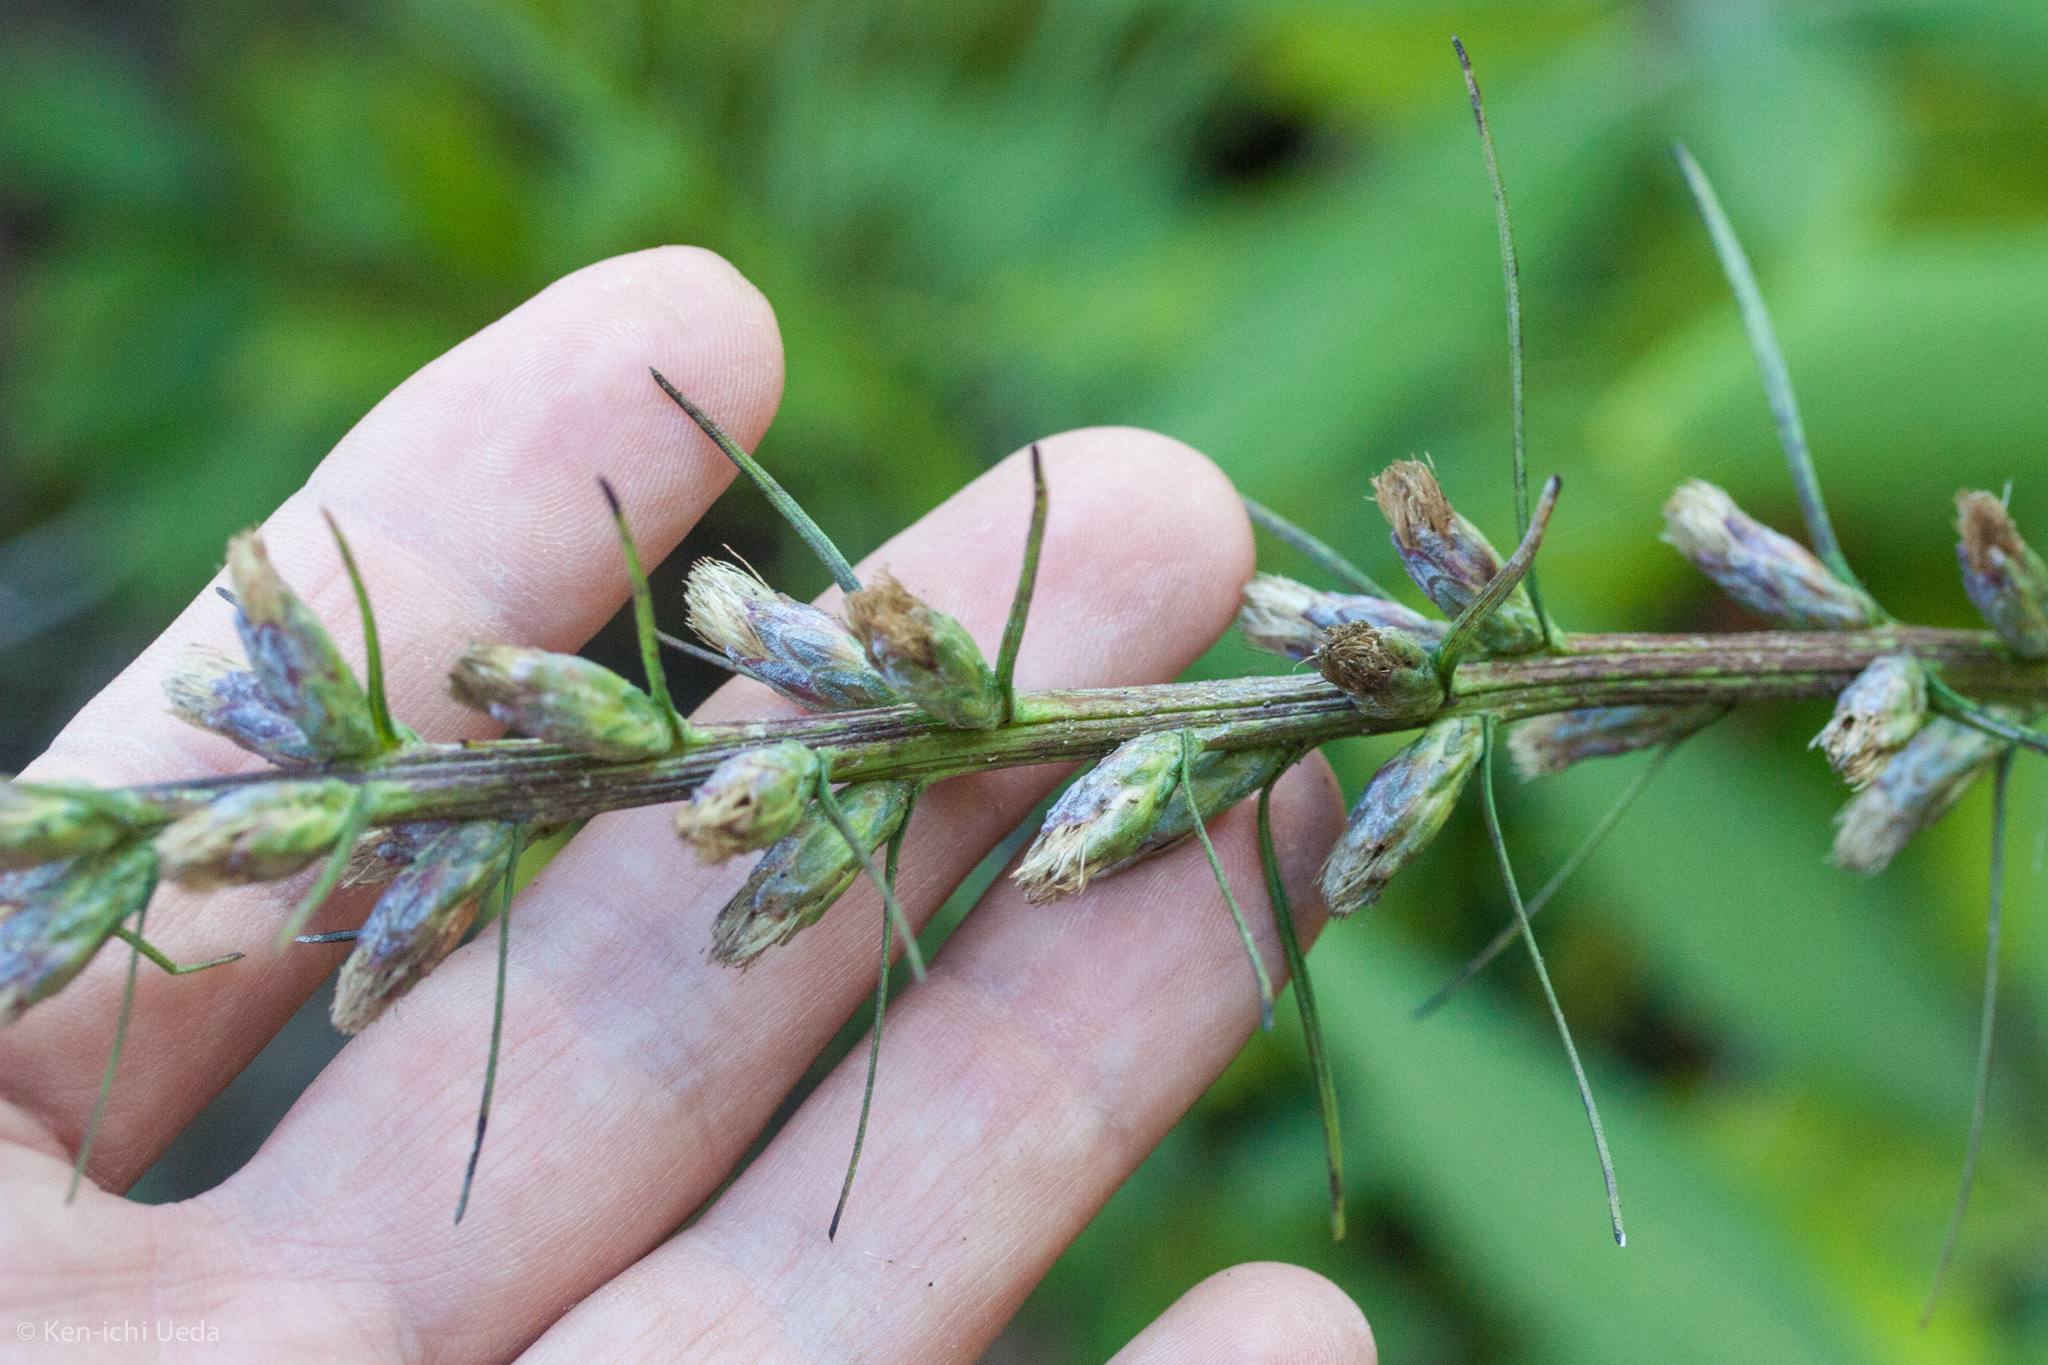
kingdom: Plantae
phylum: Tracheophyta
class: Magnoliopsida
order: Asterales
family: Asteraceae
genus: Liatris
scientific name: Liatris spicata
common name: Florist gayfeather
